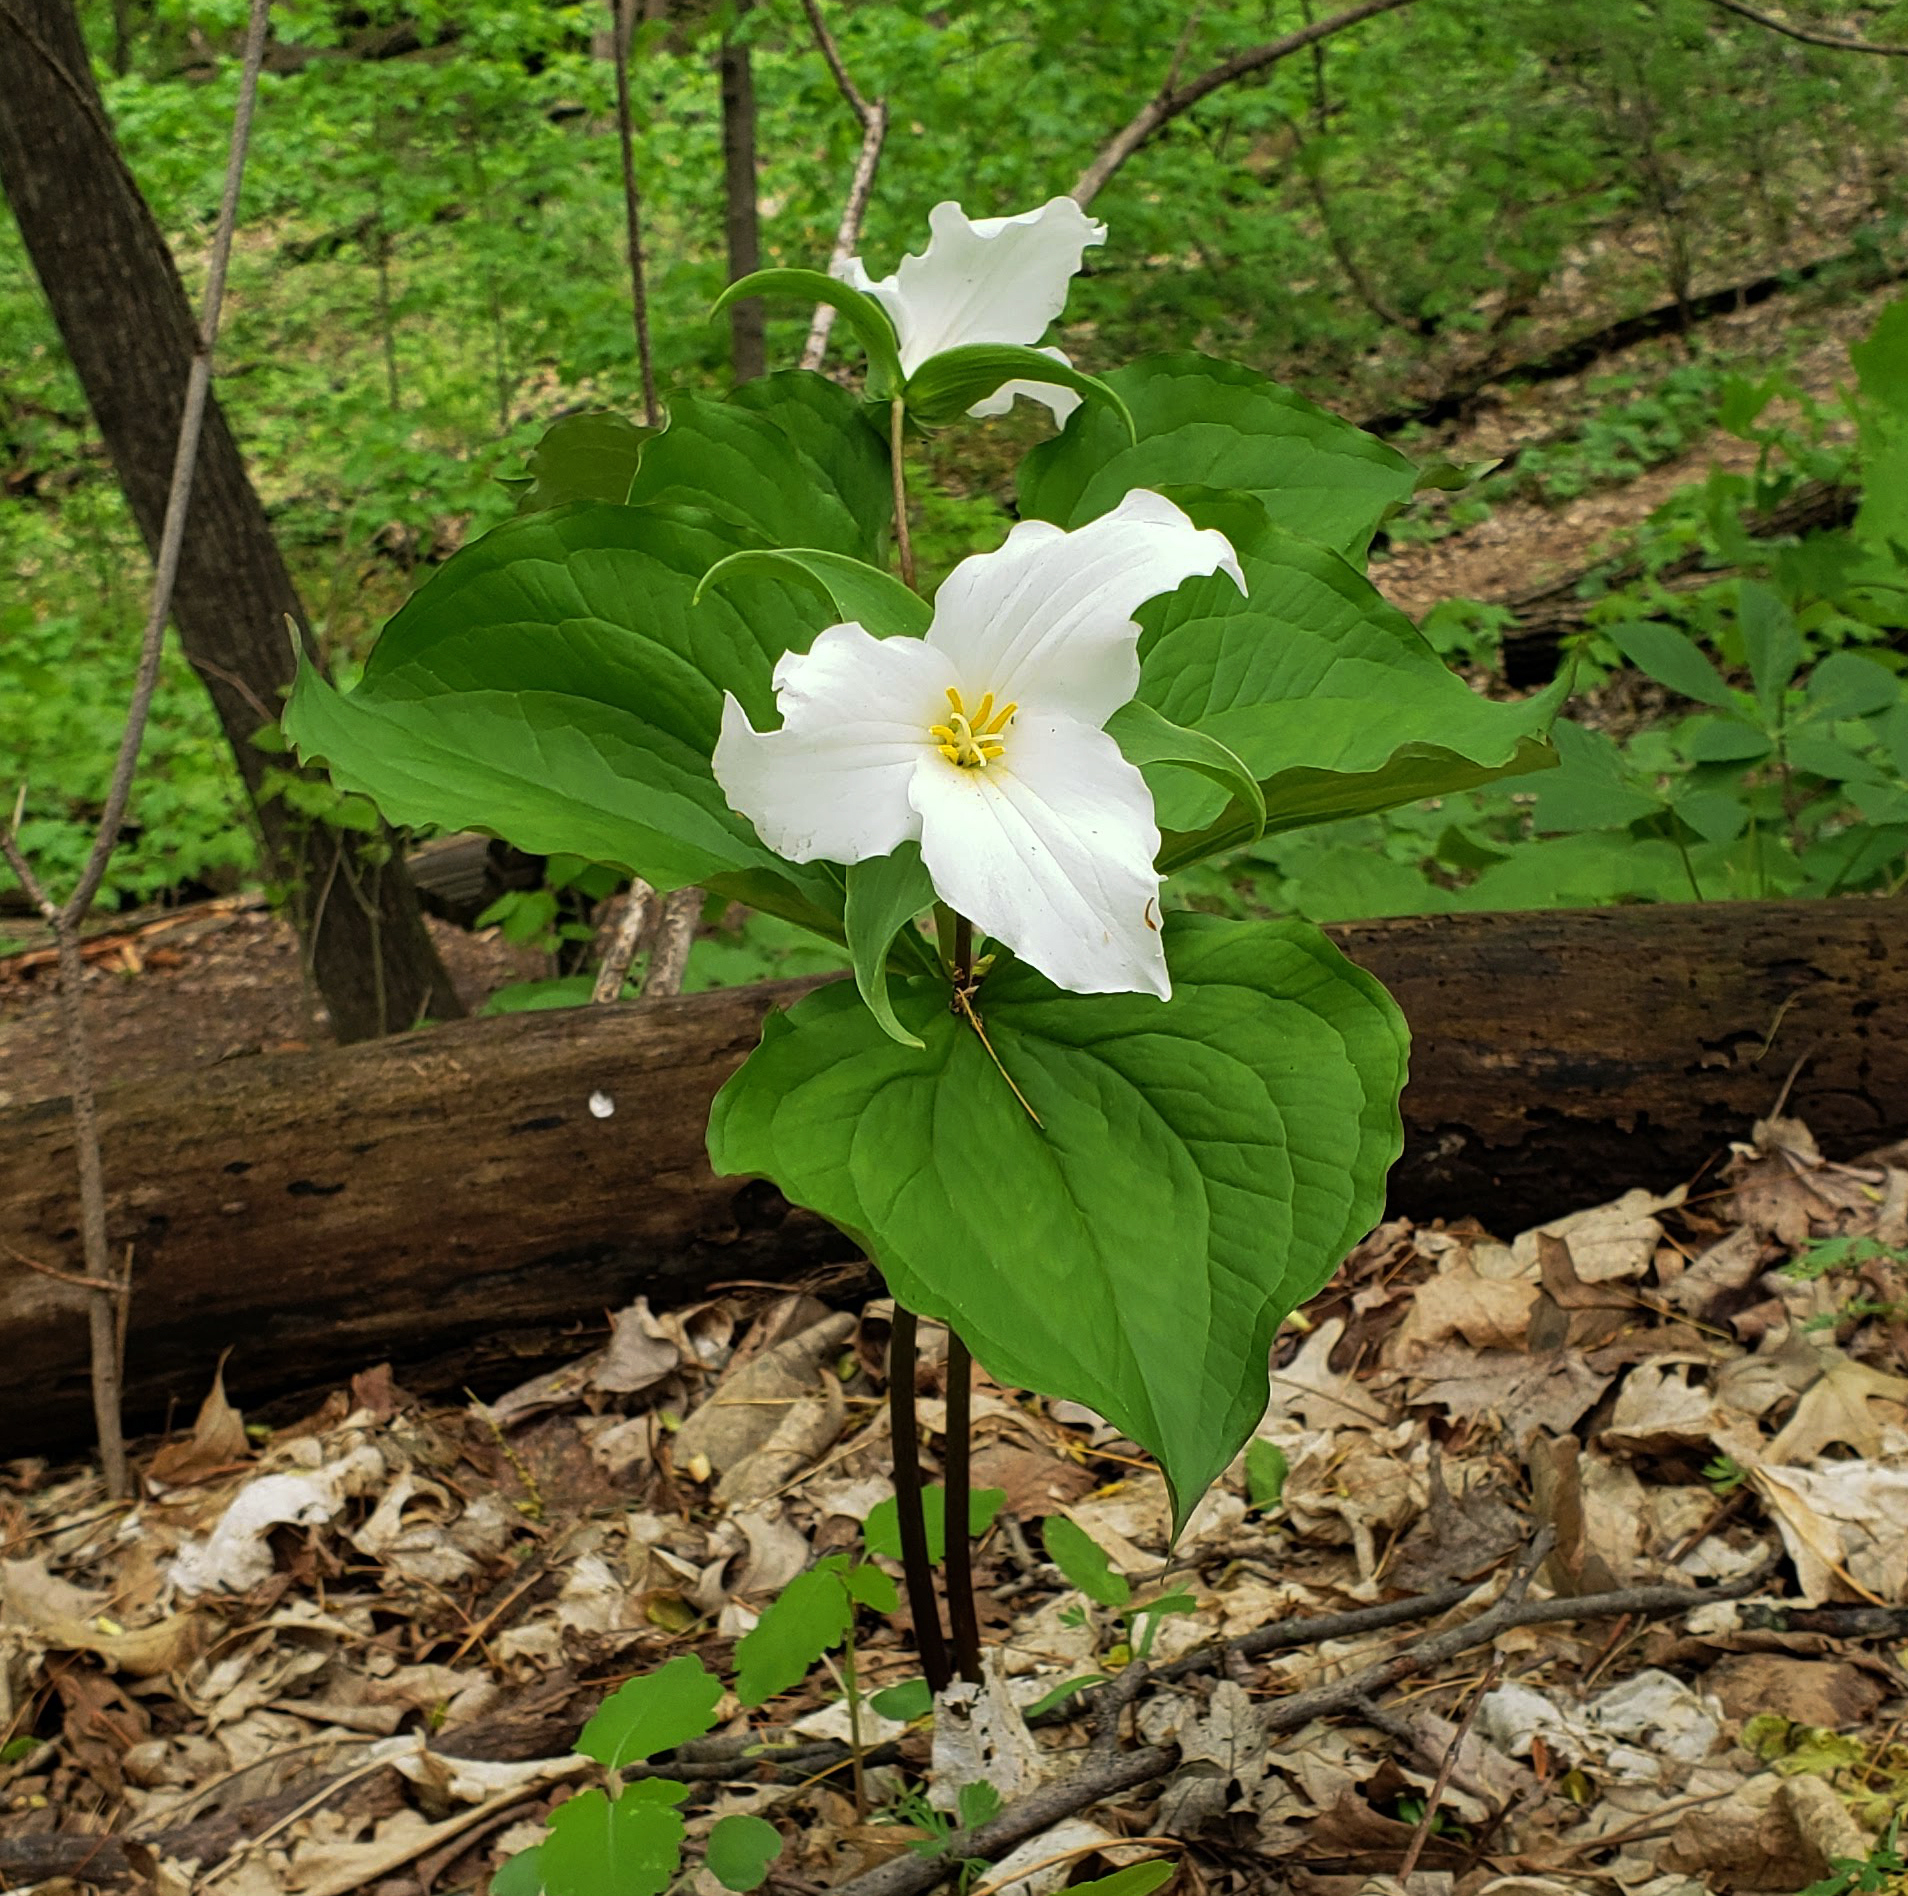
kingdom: Plantae
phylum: Tracheophyta
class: Liliopsida
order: Liliales
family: Melanthiaceae
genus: Trillium
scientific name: Trillium grandiflorum
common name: Great white trillium
